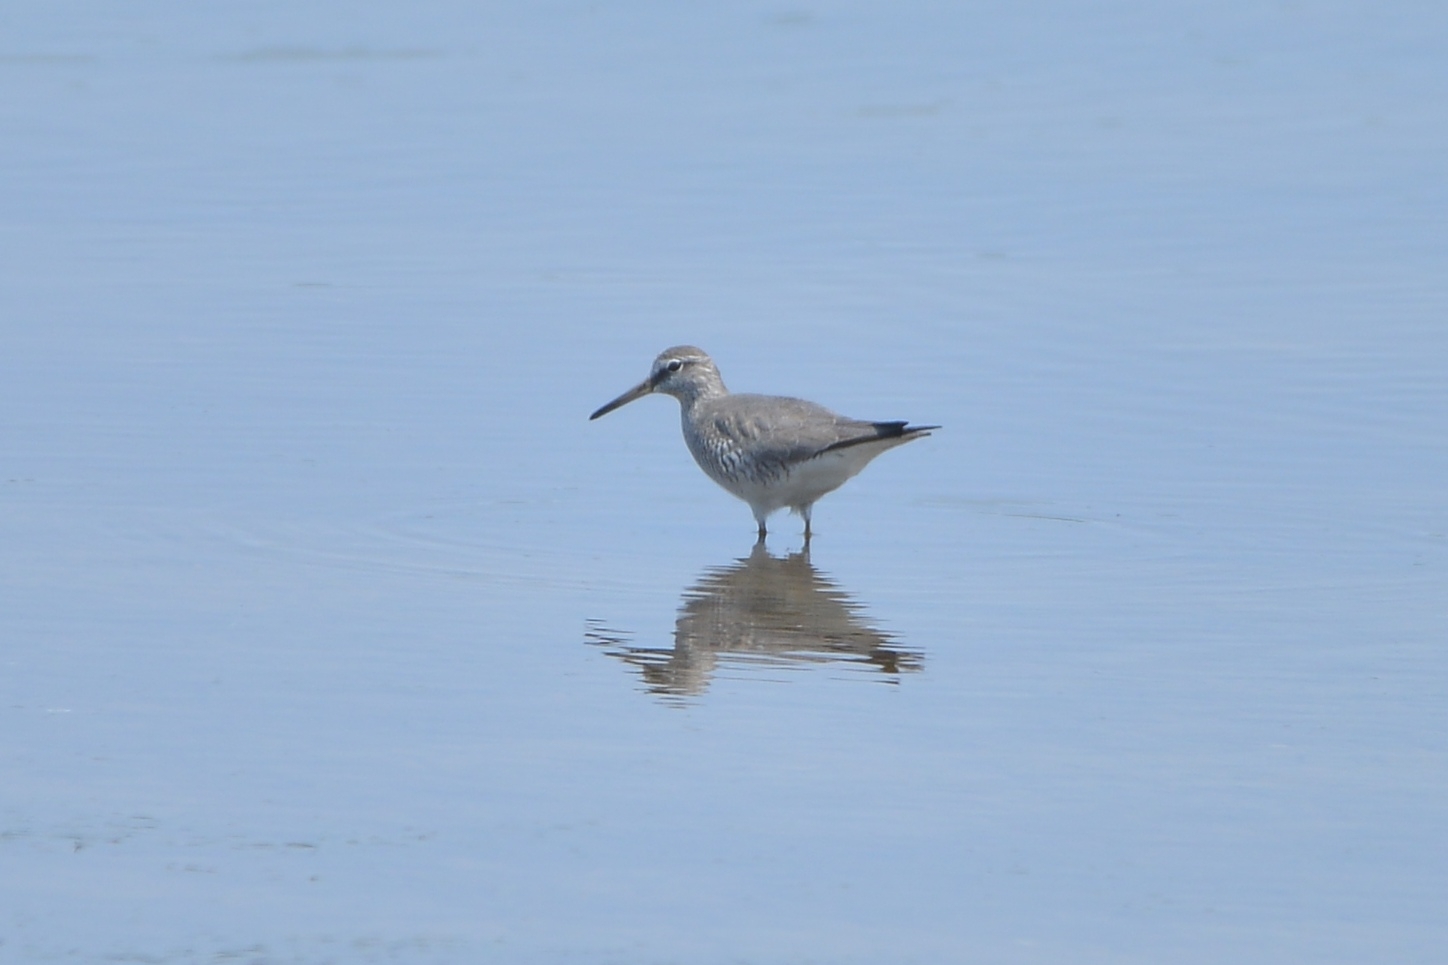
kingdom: Animalia
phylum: Chordata
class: Aves
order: Charadriiformes
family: Scolopacidae
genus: Tringa
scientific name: Tringa brevipes
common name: Grey-tailed tattler
